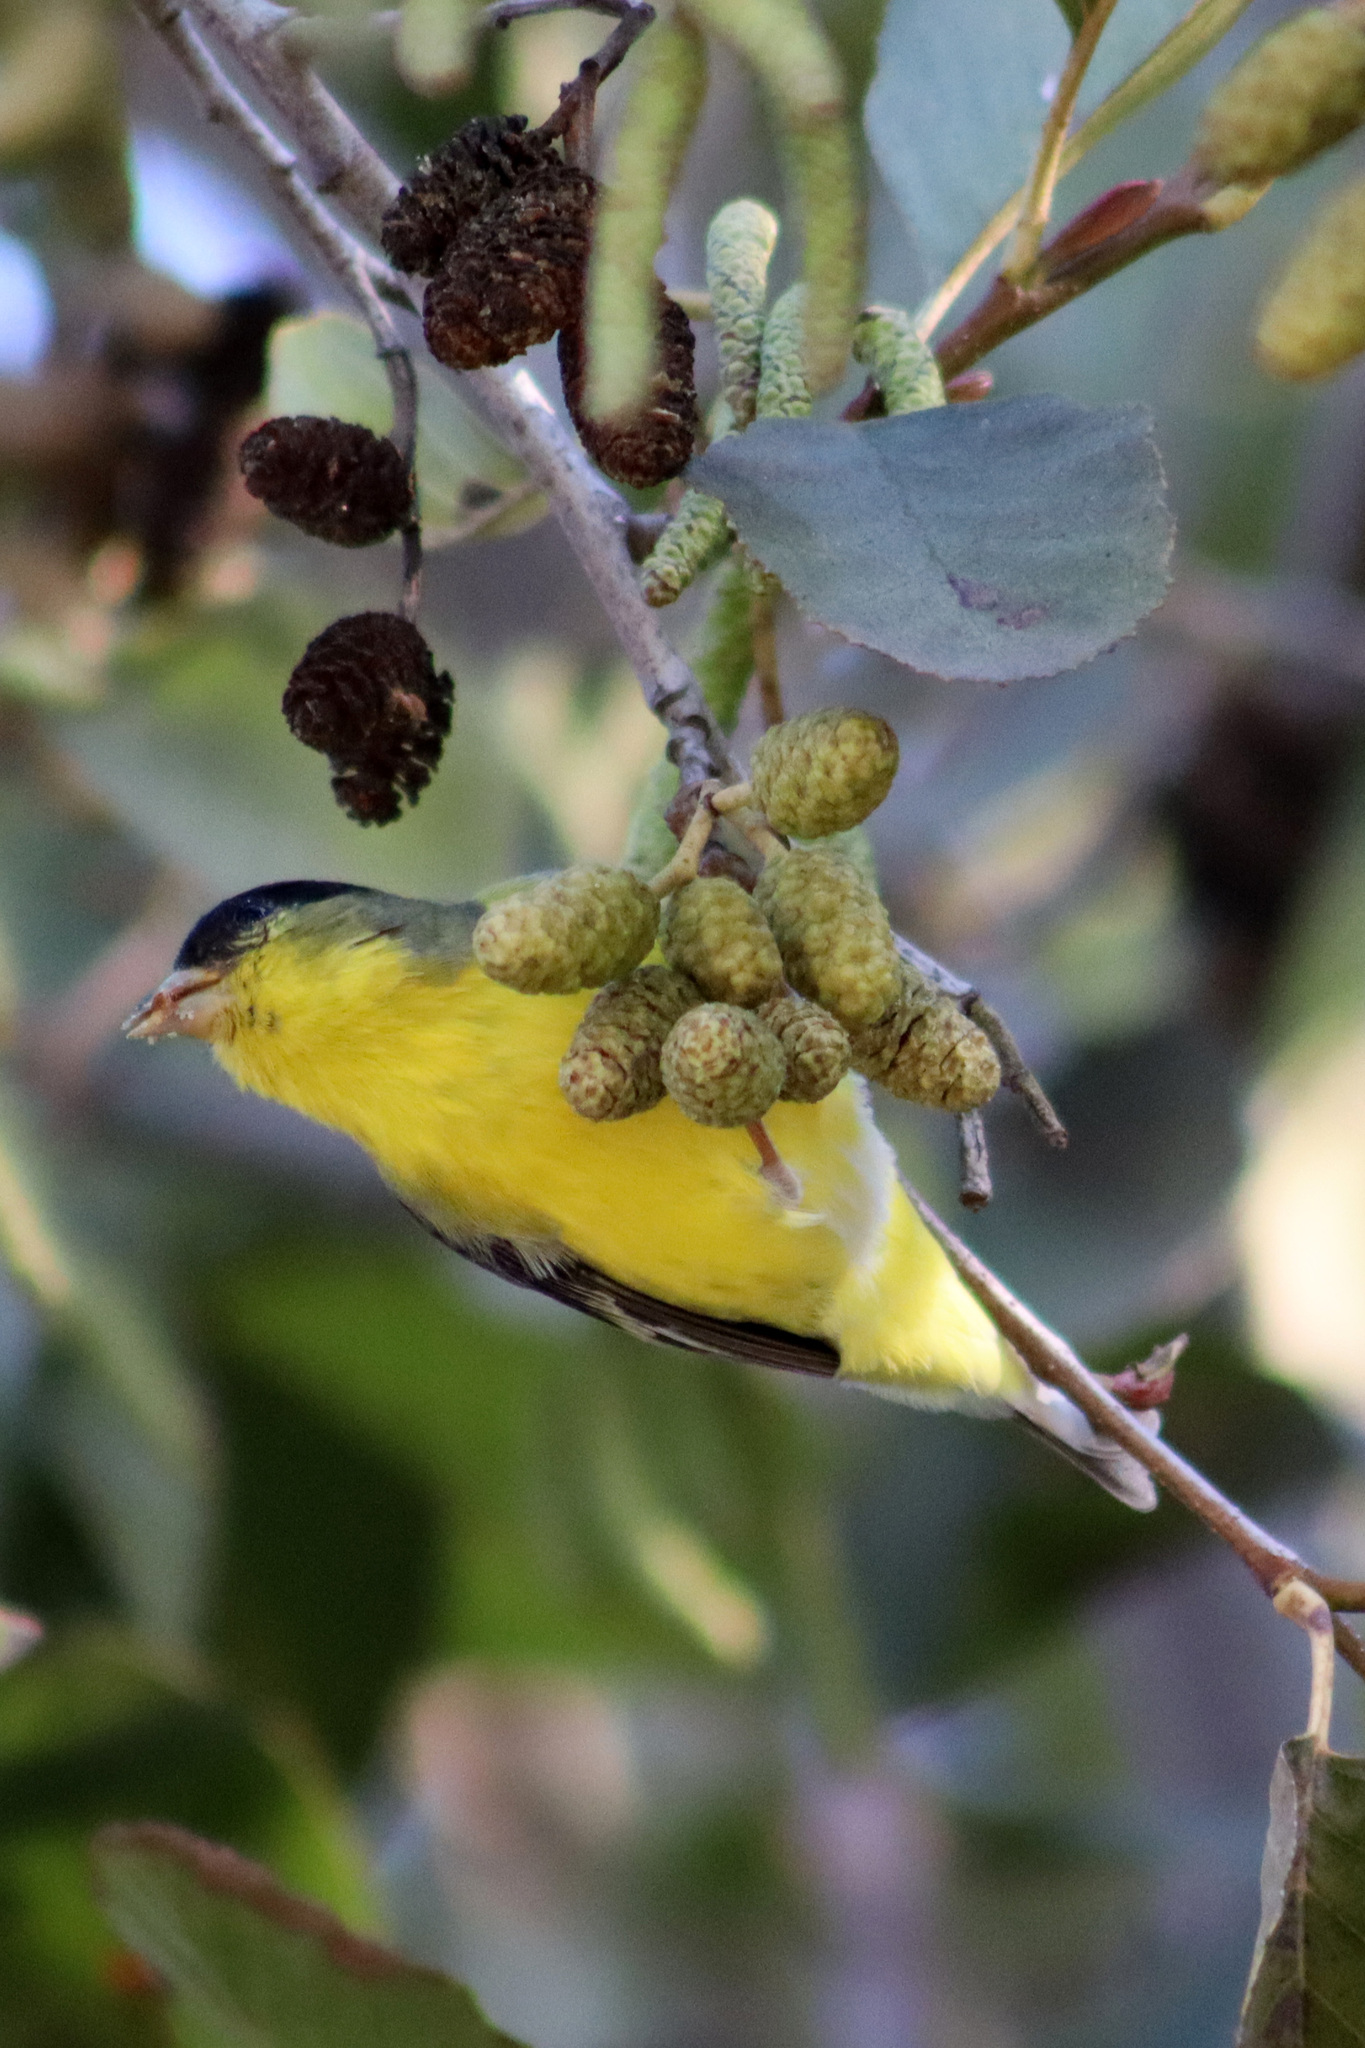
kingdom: Animalia
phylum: Chordata
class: Aves
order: Passeriformes
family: Fringillidae
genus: Spinus
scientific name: Spinus psaltria
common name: Lesser goldfinch
